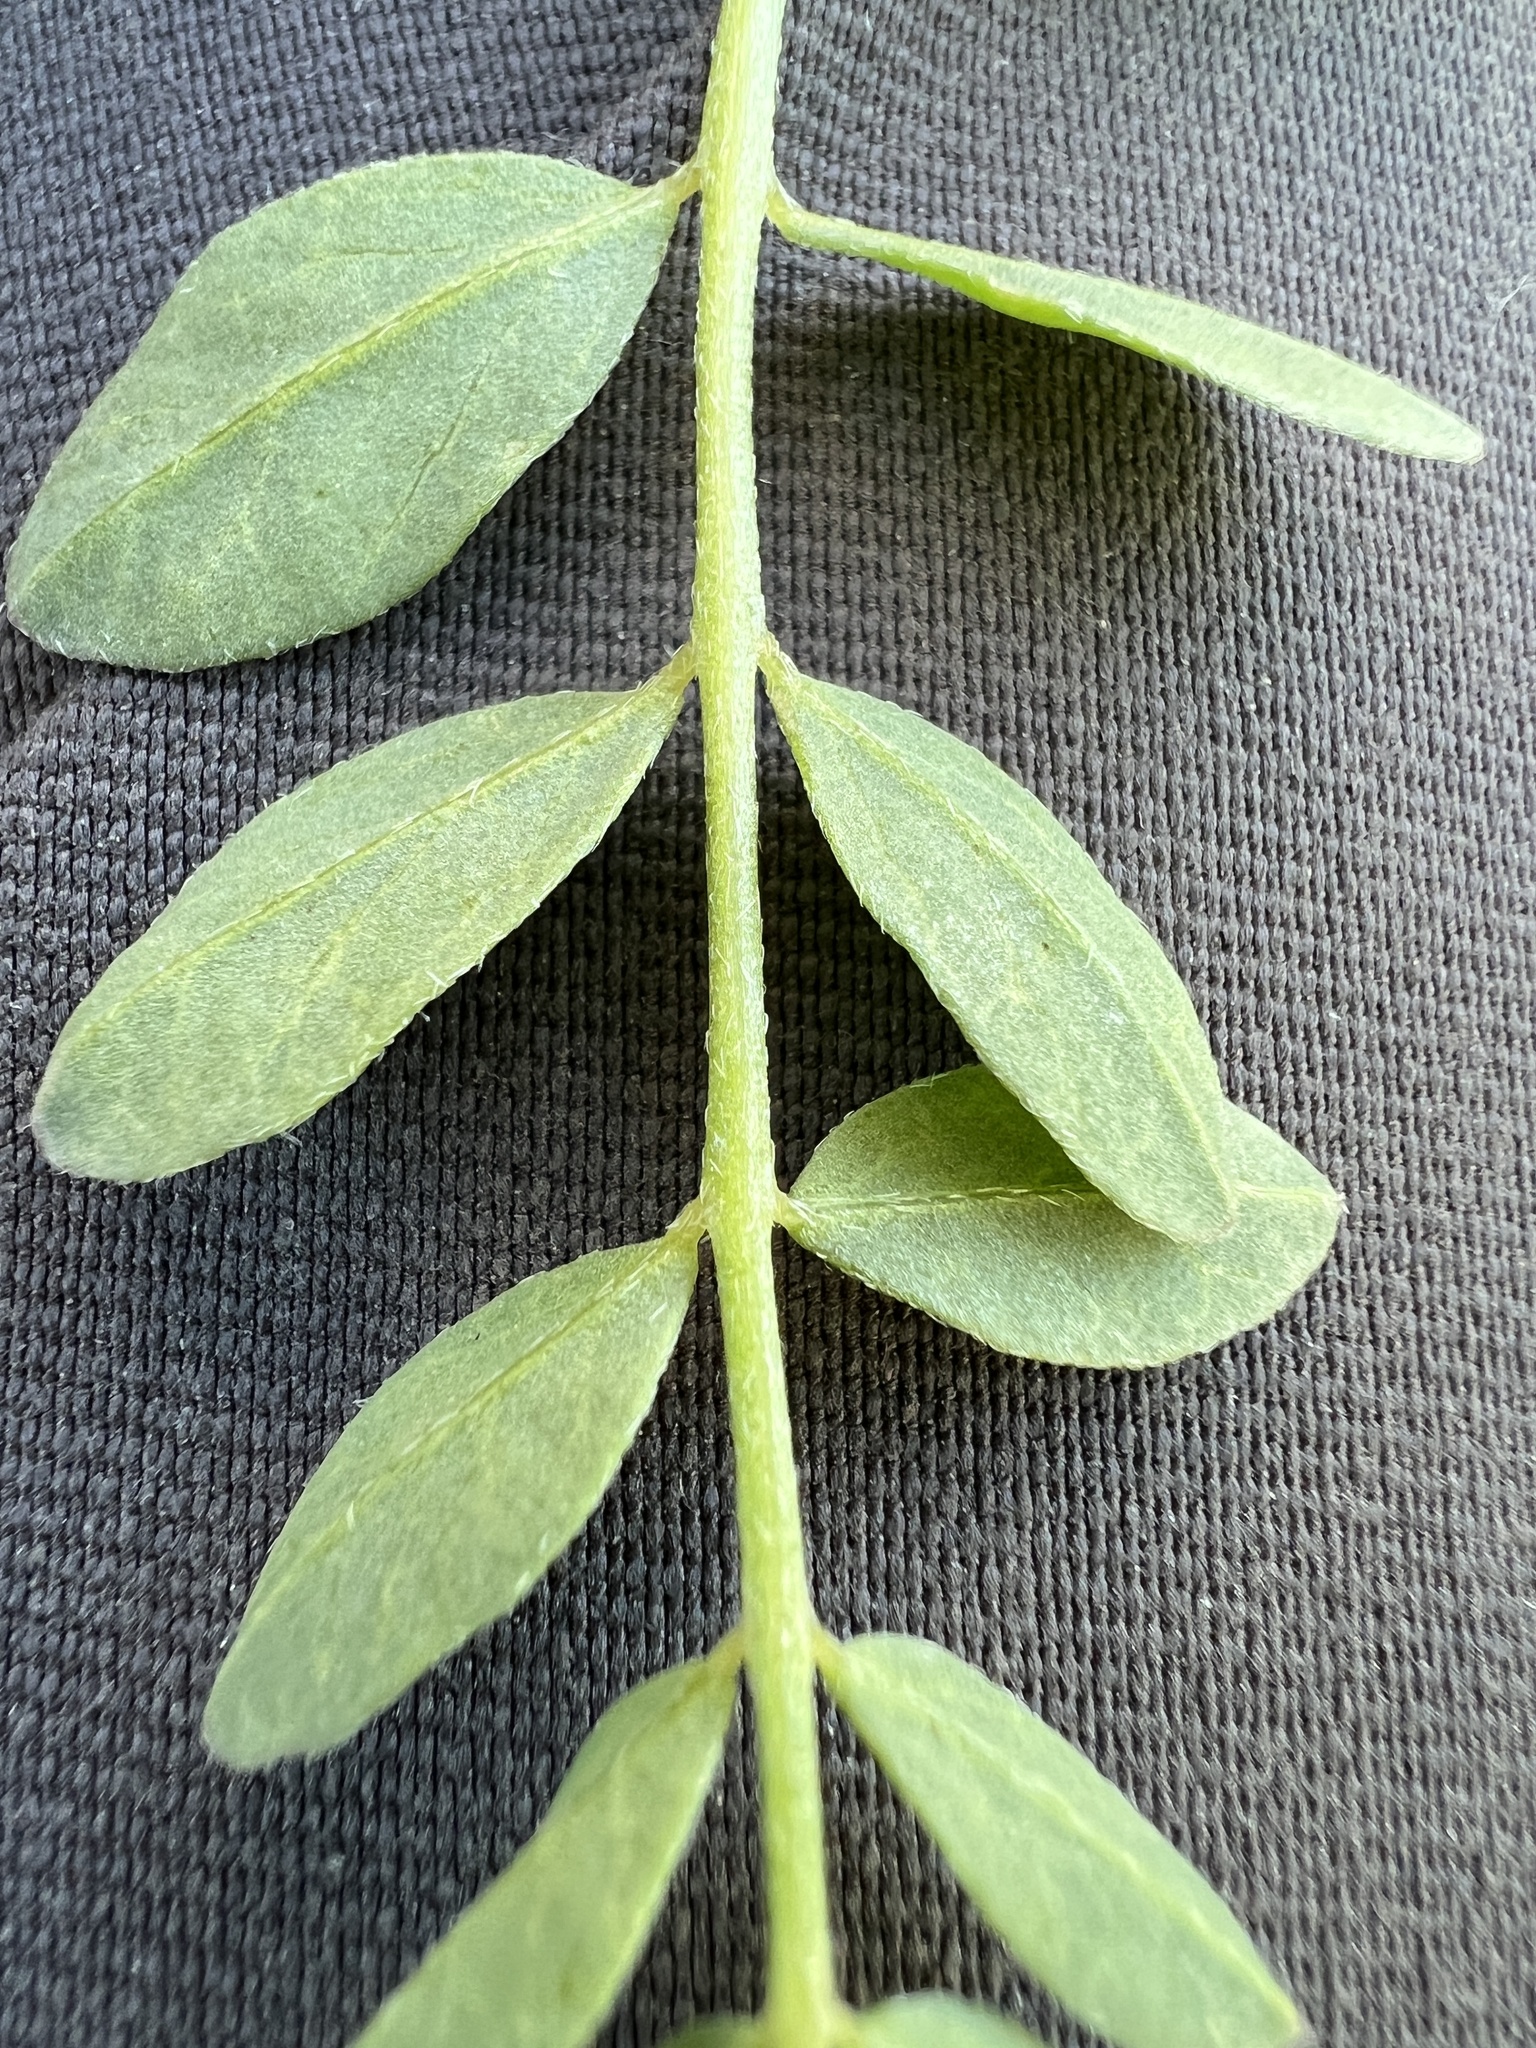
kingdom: Plantae
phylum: Tracheophyta
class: Magnoliopsida
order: Fabales
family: Fabaceae
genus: Astragalus
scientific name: Astragalus lentiginosus
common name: Freckled milkvetch
